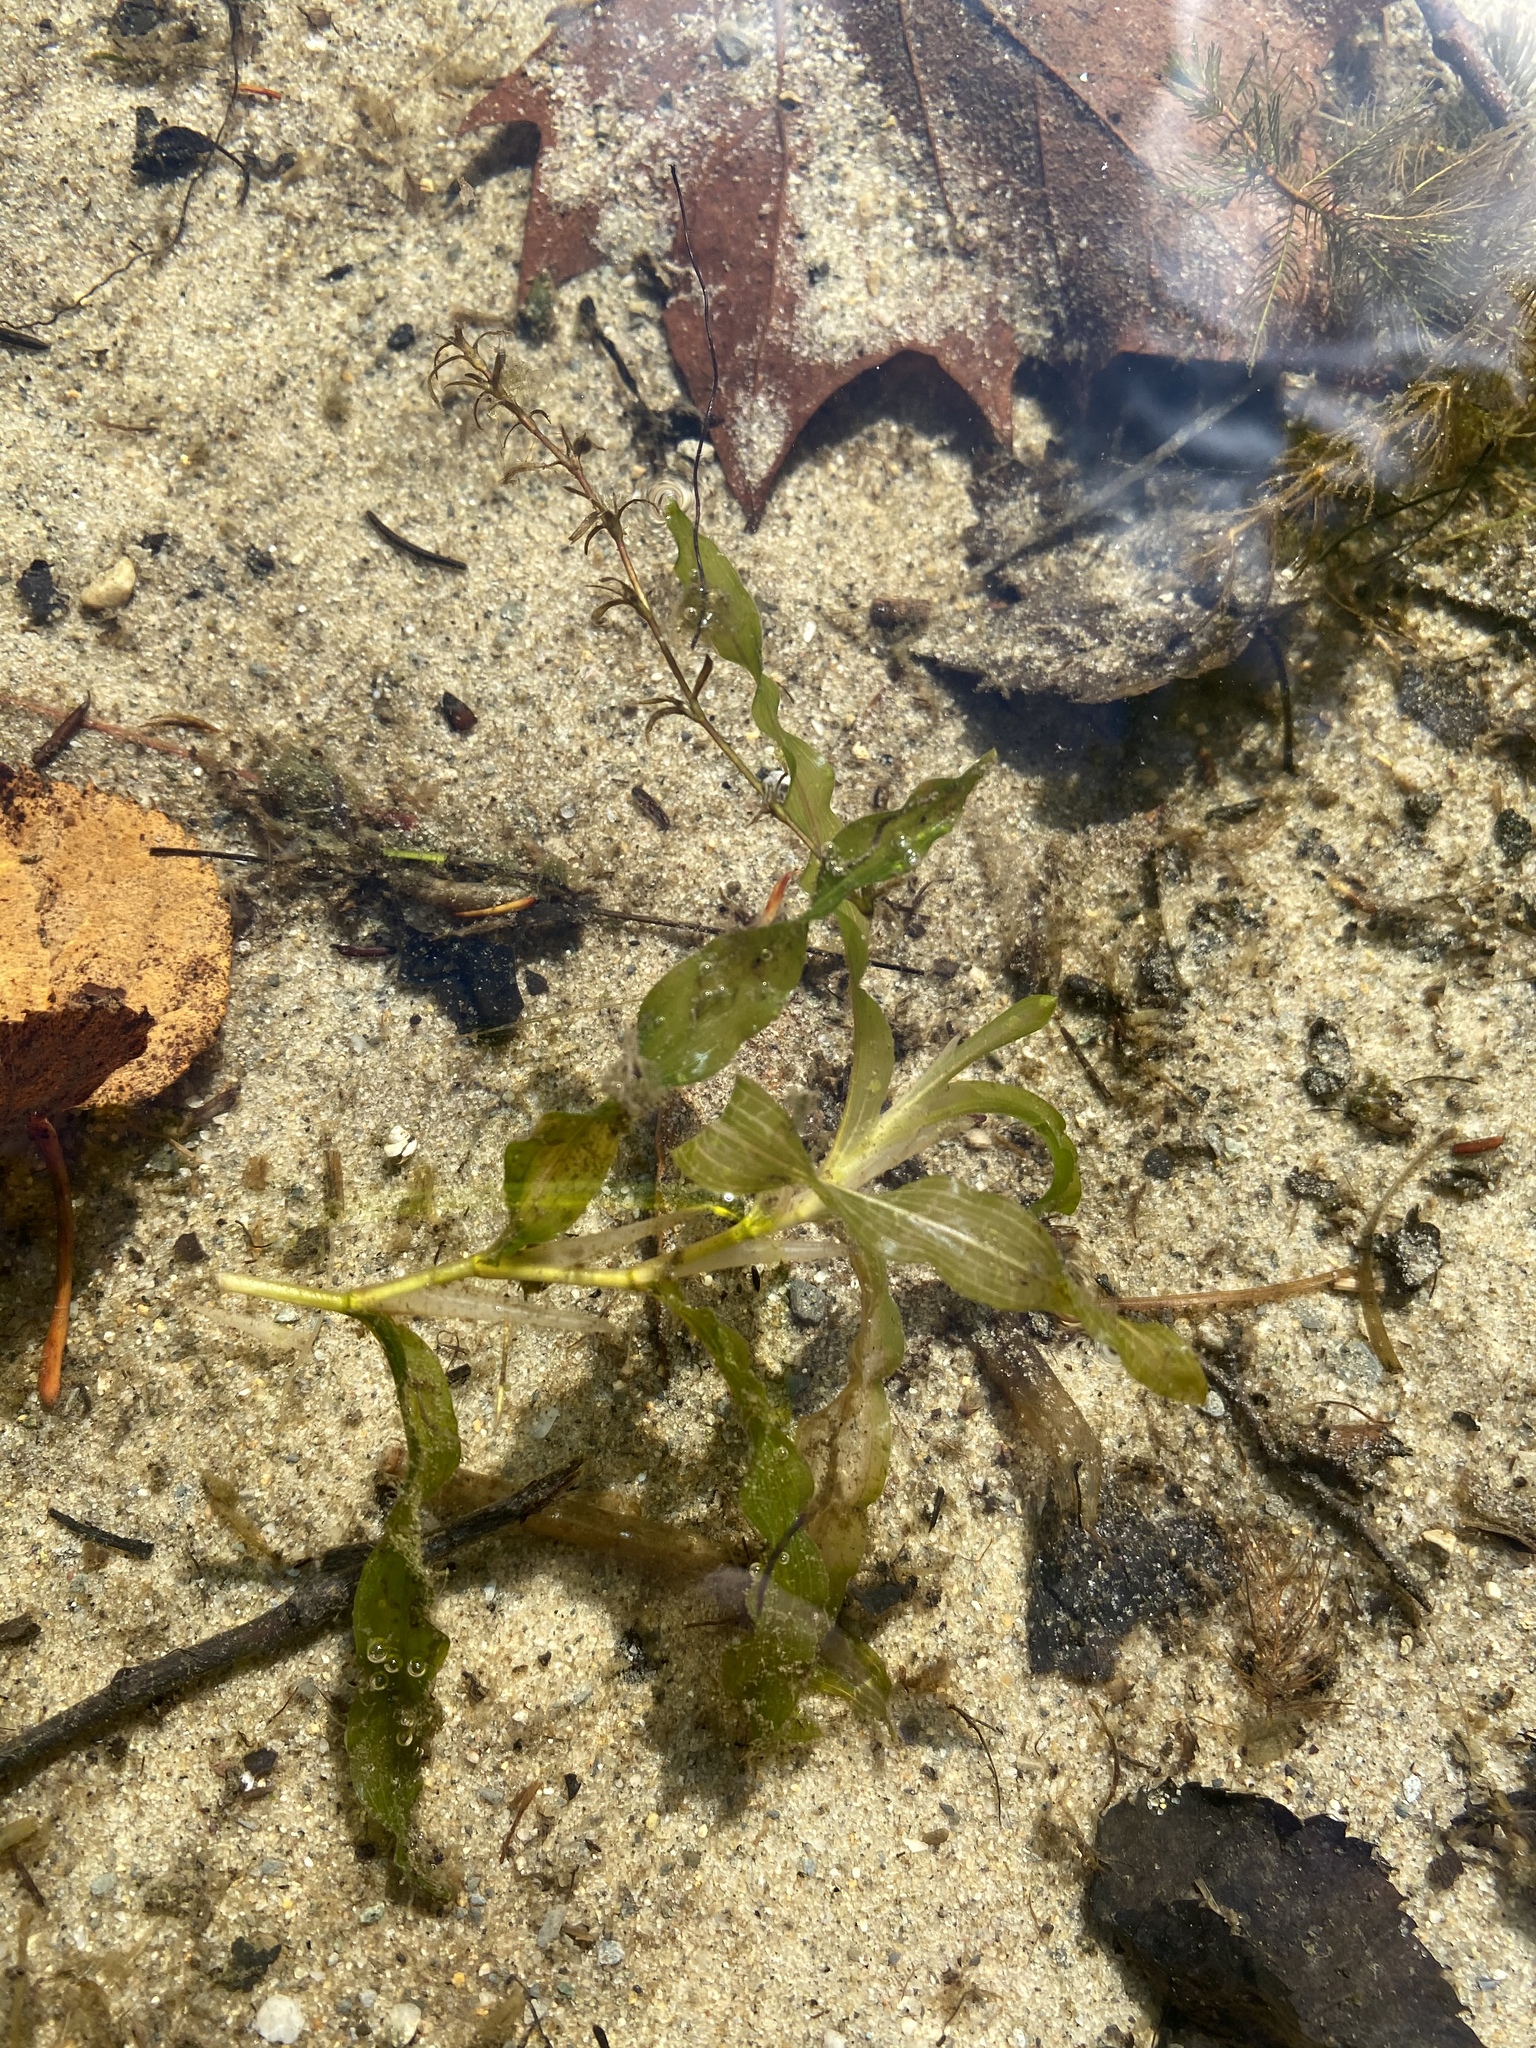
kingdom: Plantae
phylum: Tracheophyta
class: Liliopsida
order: Alismatales
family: Potamogetonaceae
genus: Potamogeton
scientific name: Potamogeton praelongus
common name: Long-stalked pondweed
